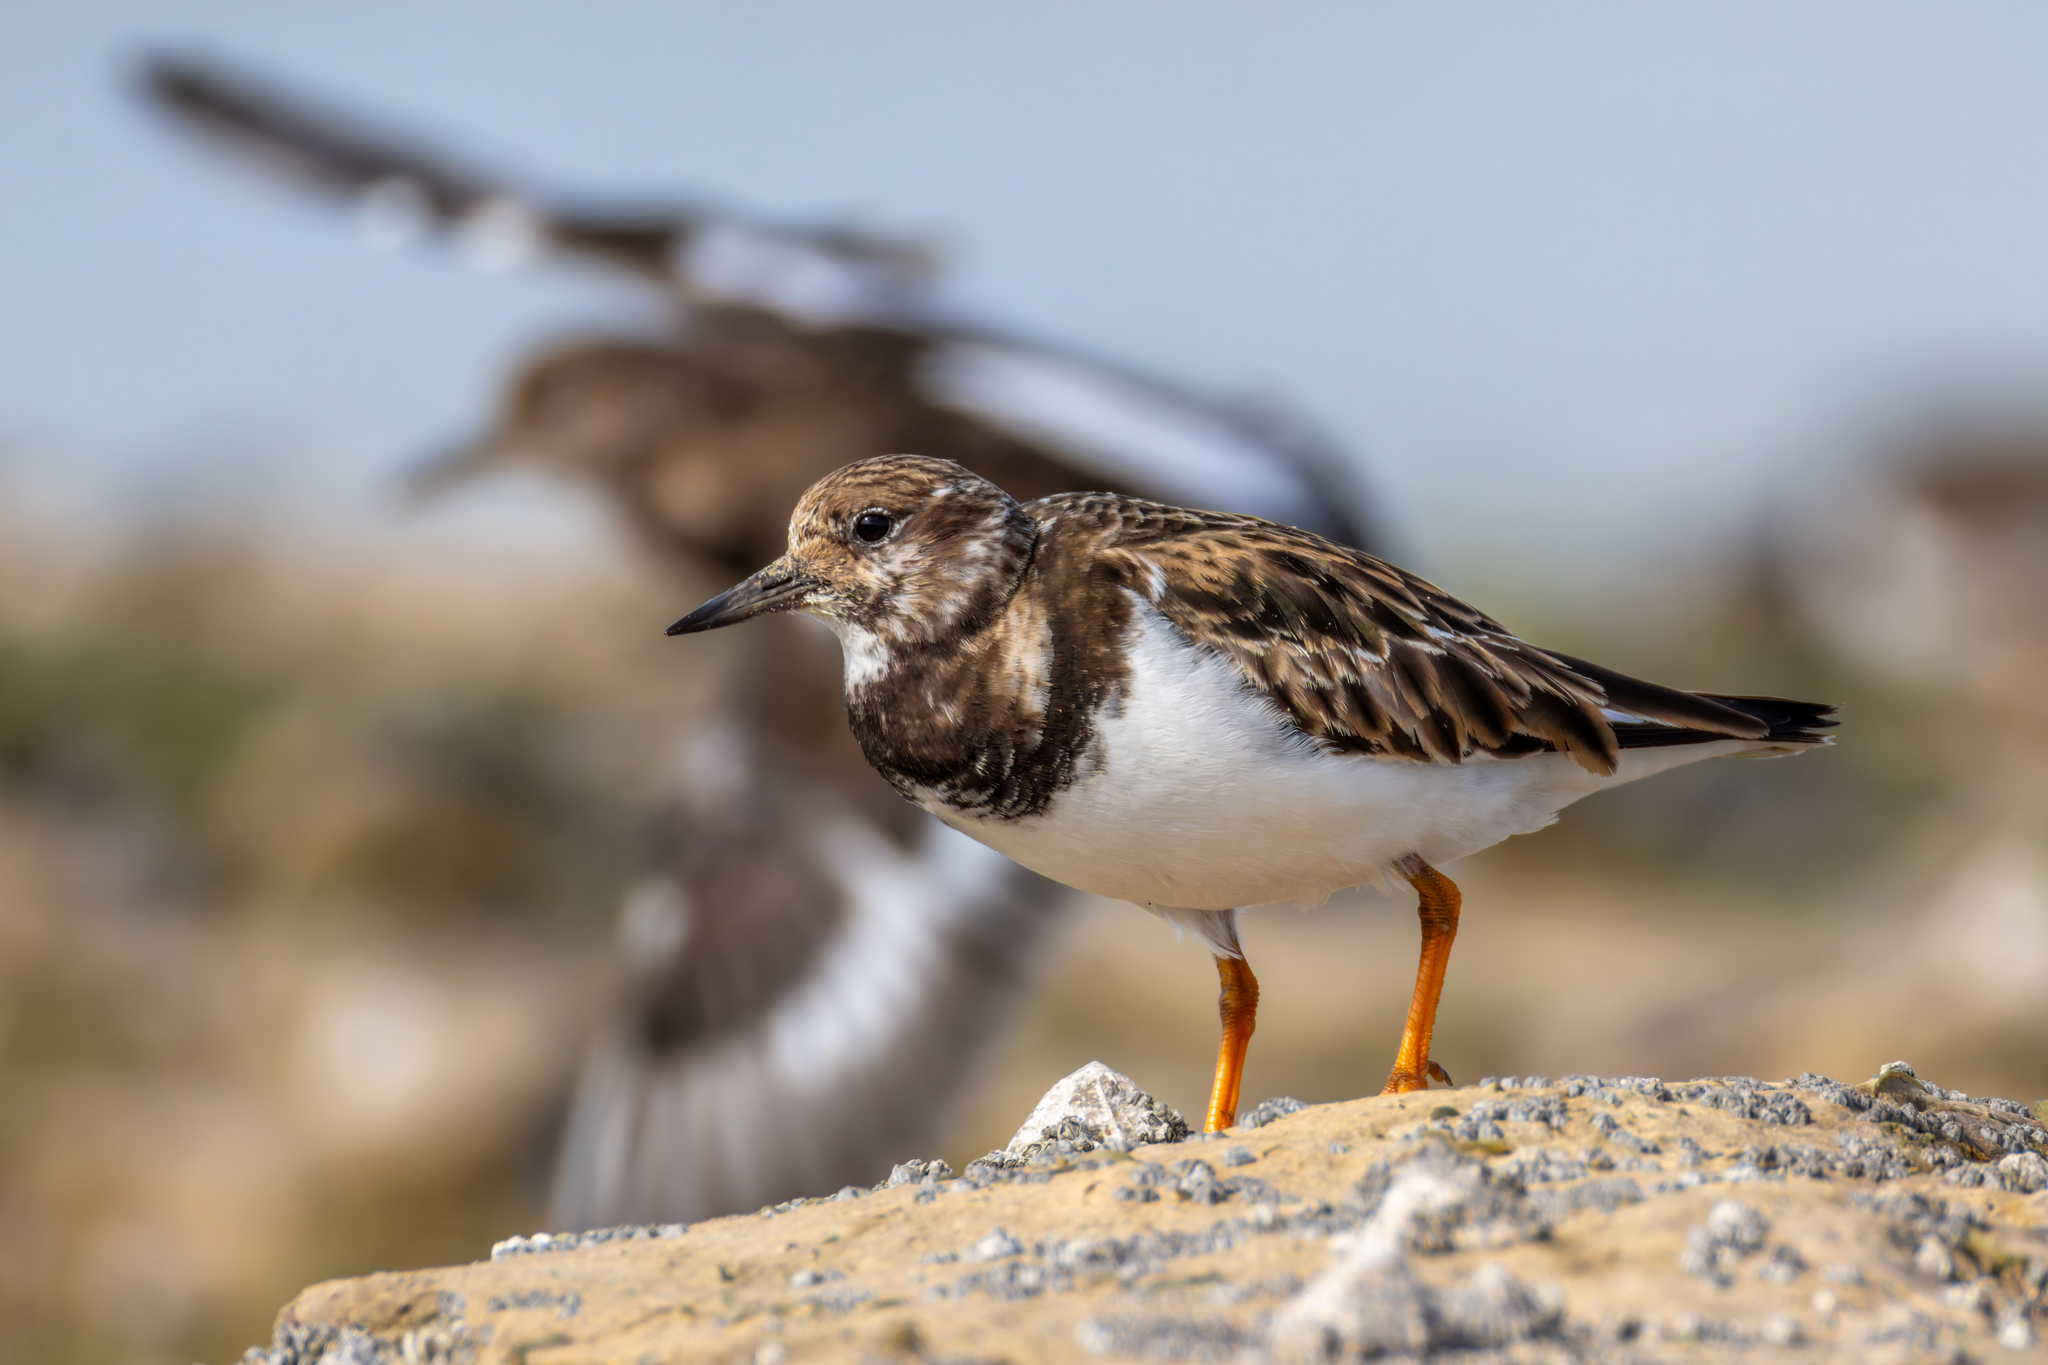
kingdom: Animalia
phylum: Chordata
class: Aves
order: Charadriiformes
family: Scolopacidae
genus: Arenaria
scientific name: Arenaria interpres
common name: Ruddy turnstone
